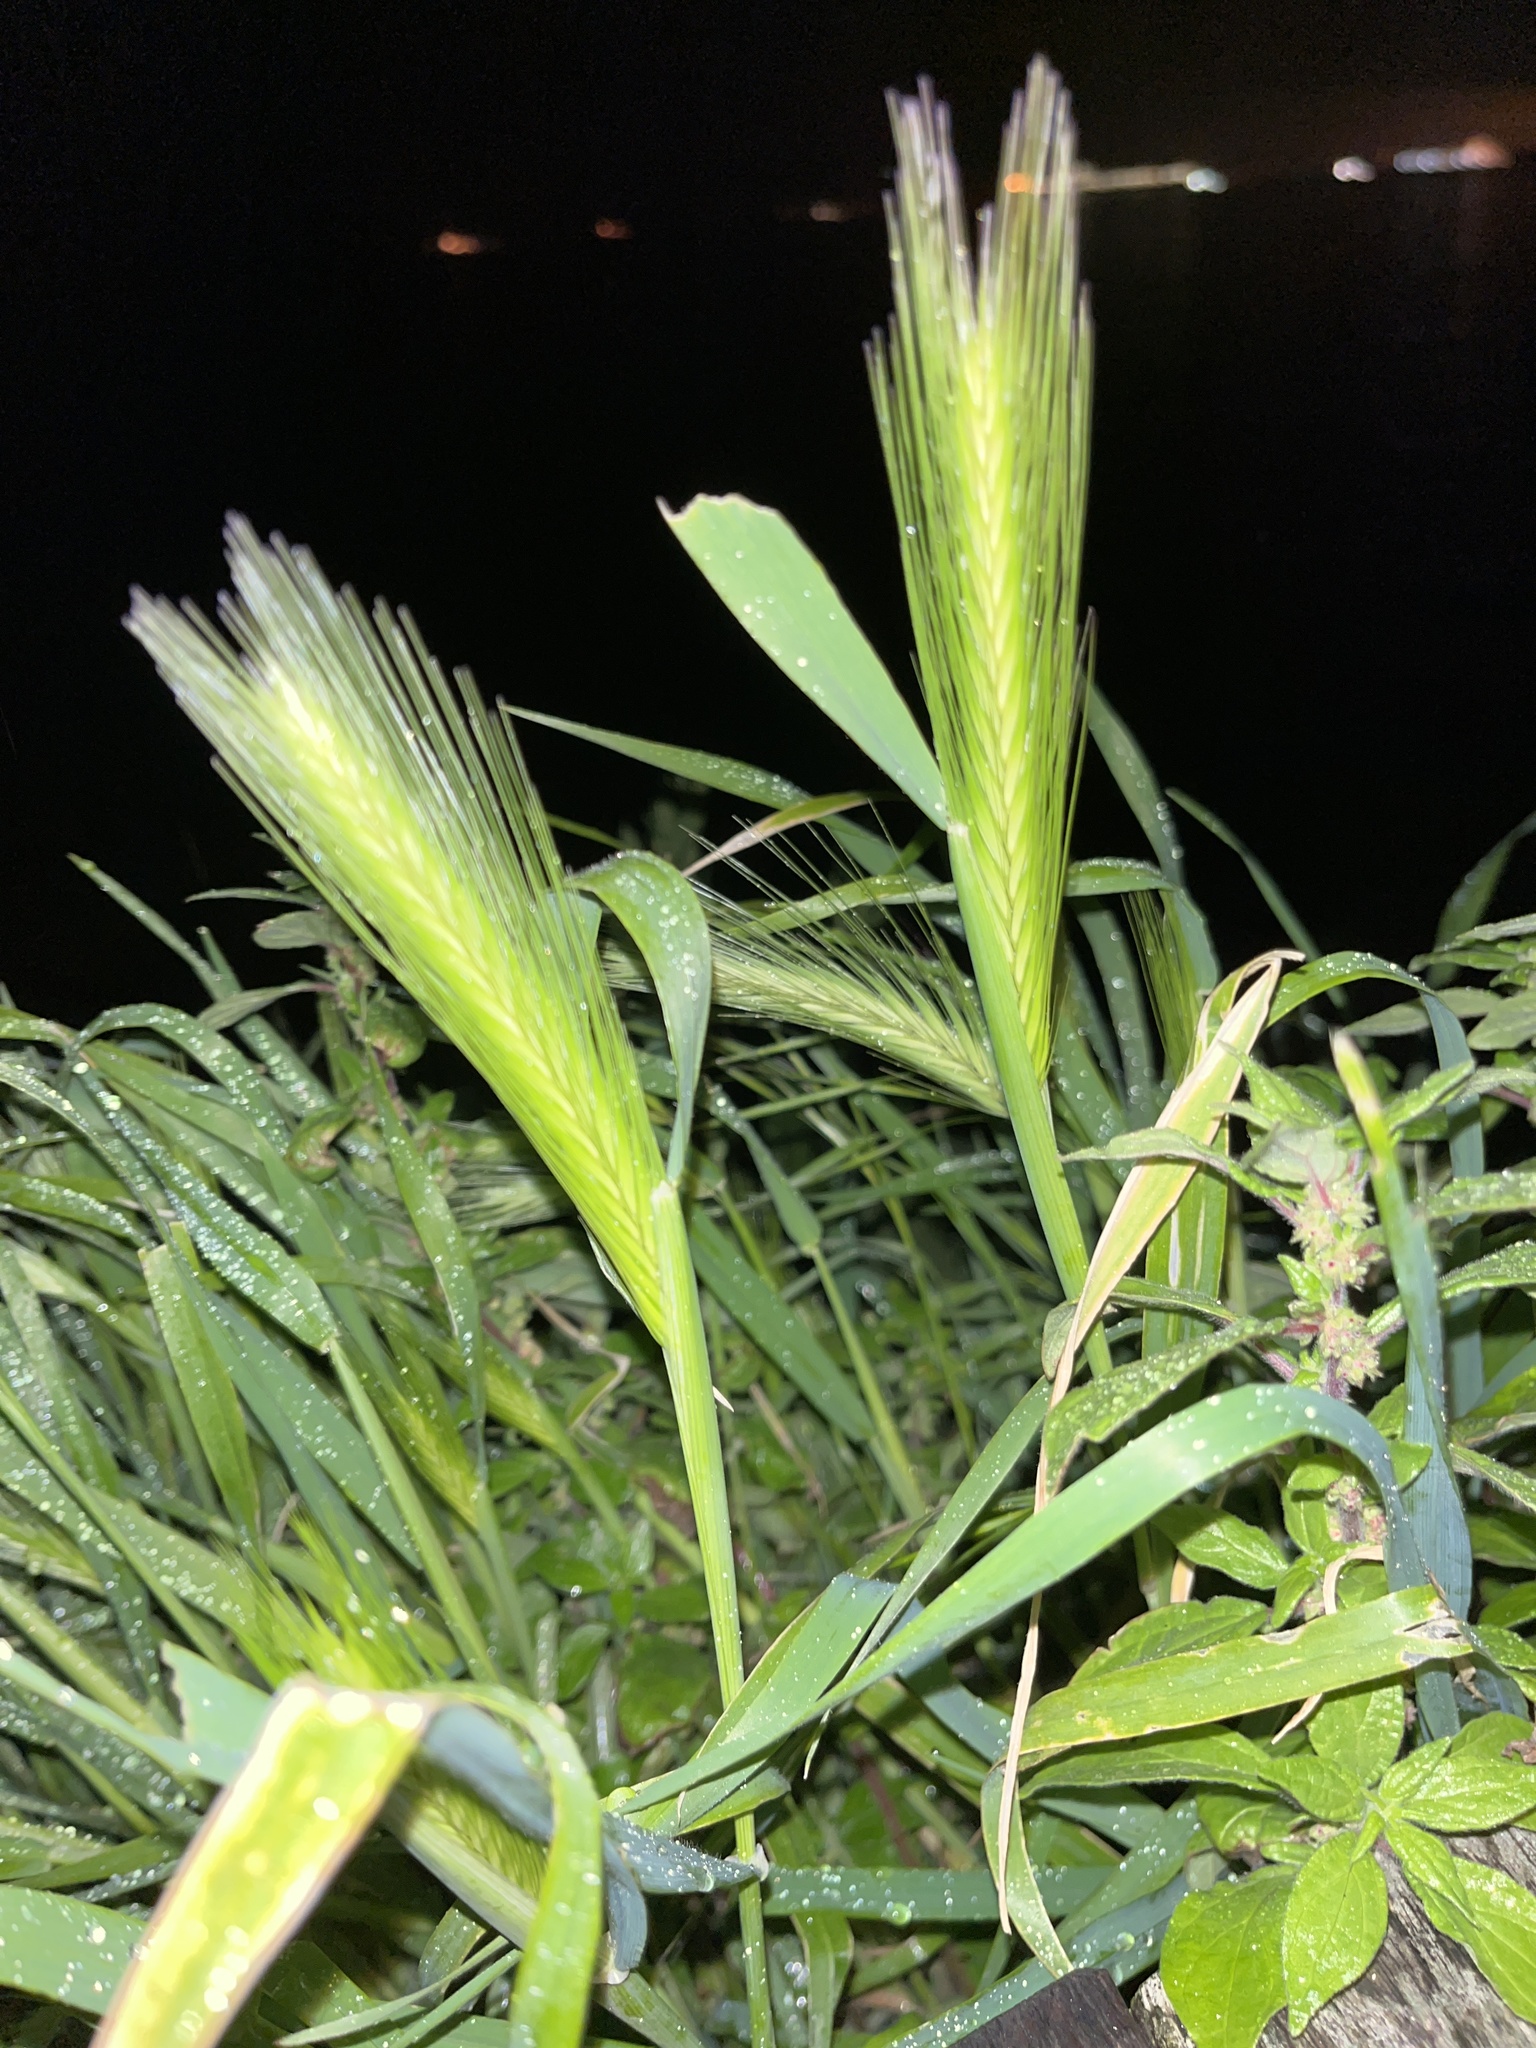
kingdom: Plantae
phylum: Tracheophyta
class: Liliopsida
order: Poales
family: Poaceae
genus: Hordeum
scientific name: Hordeum murinum
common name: Wall barley
